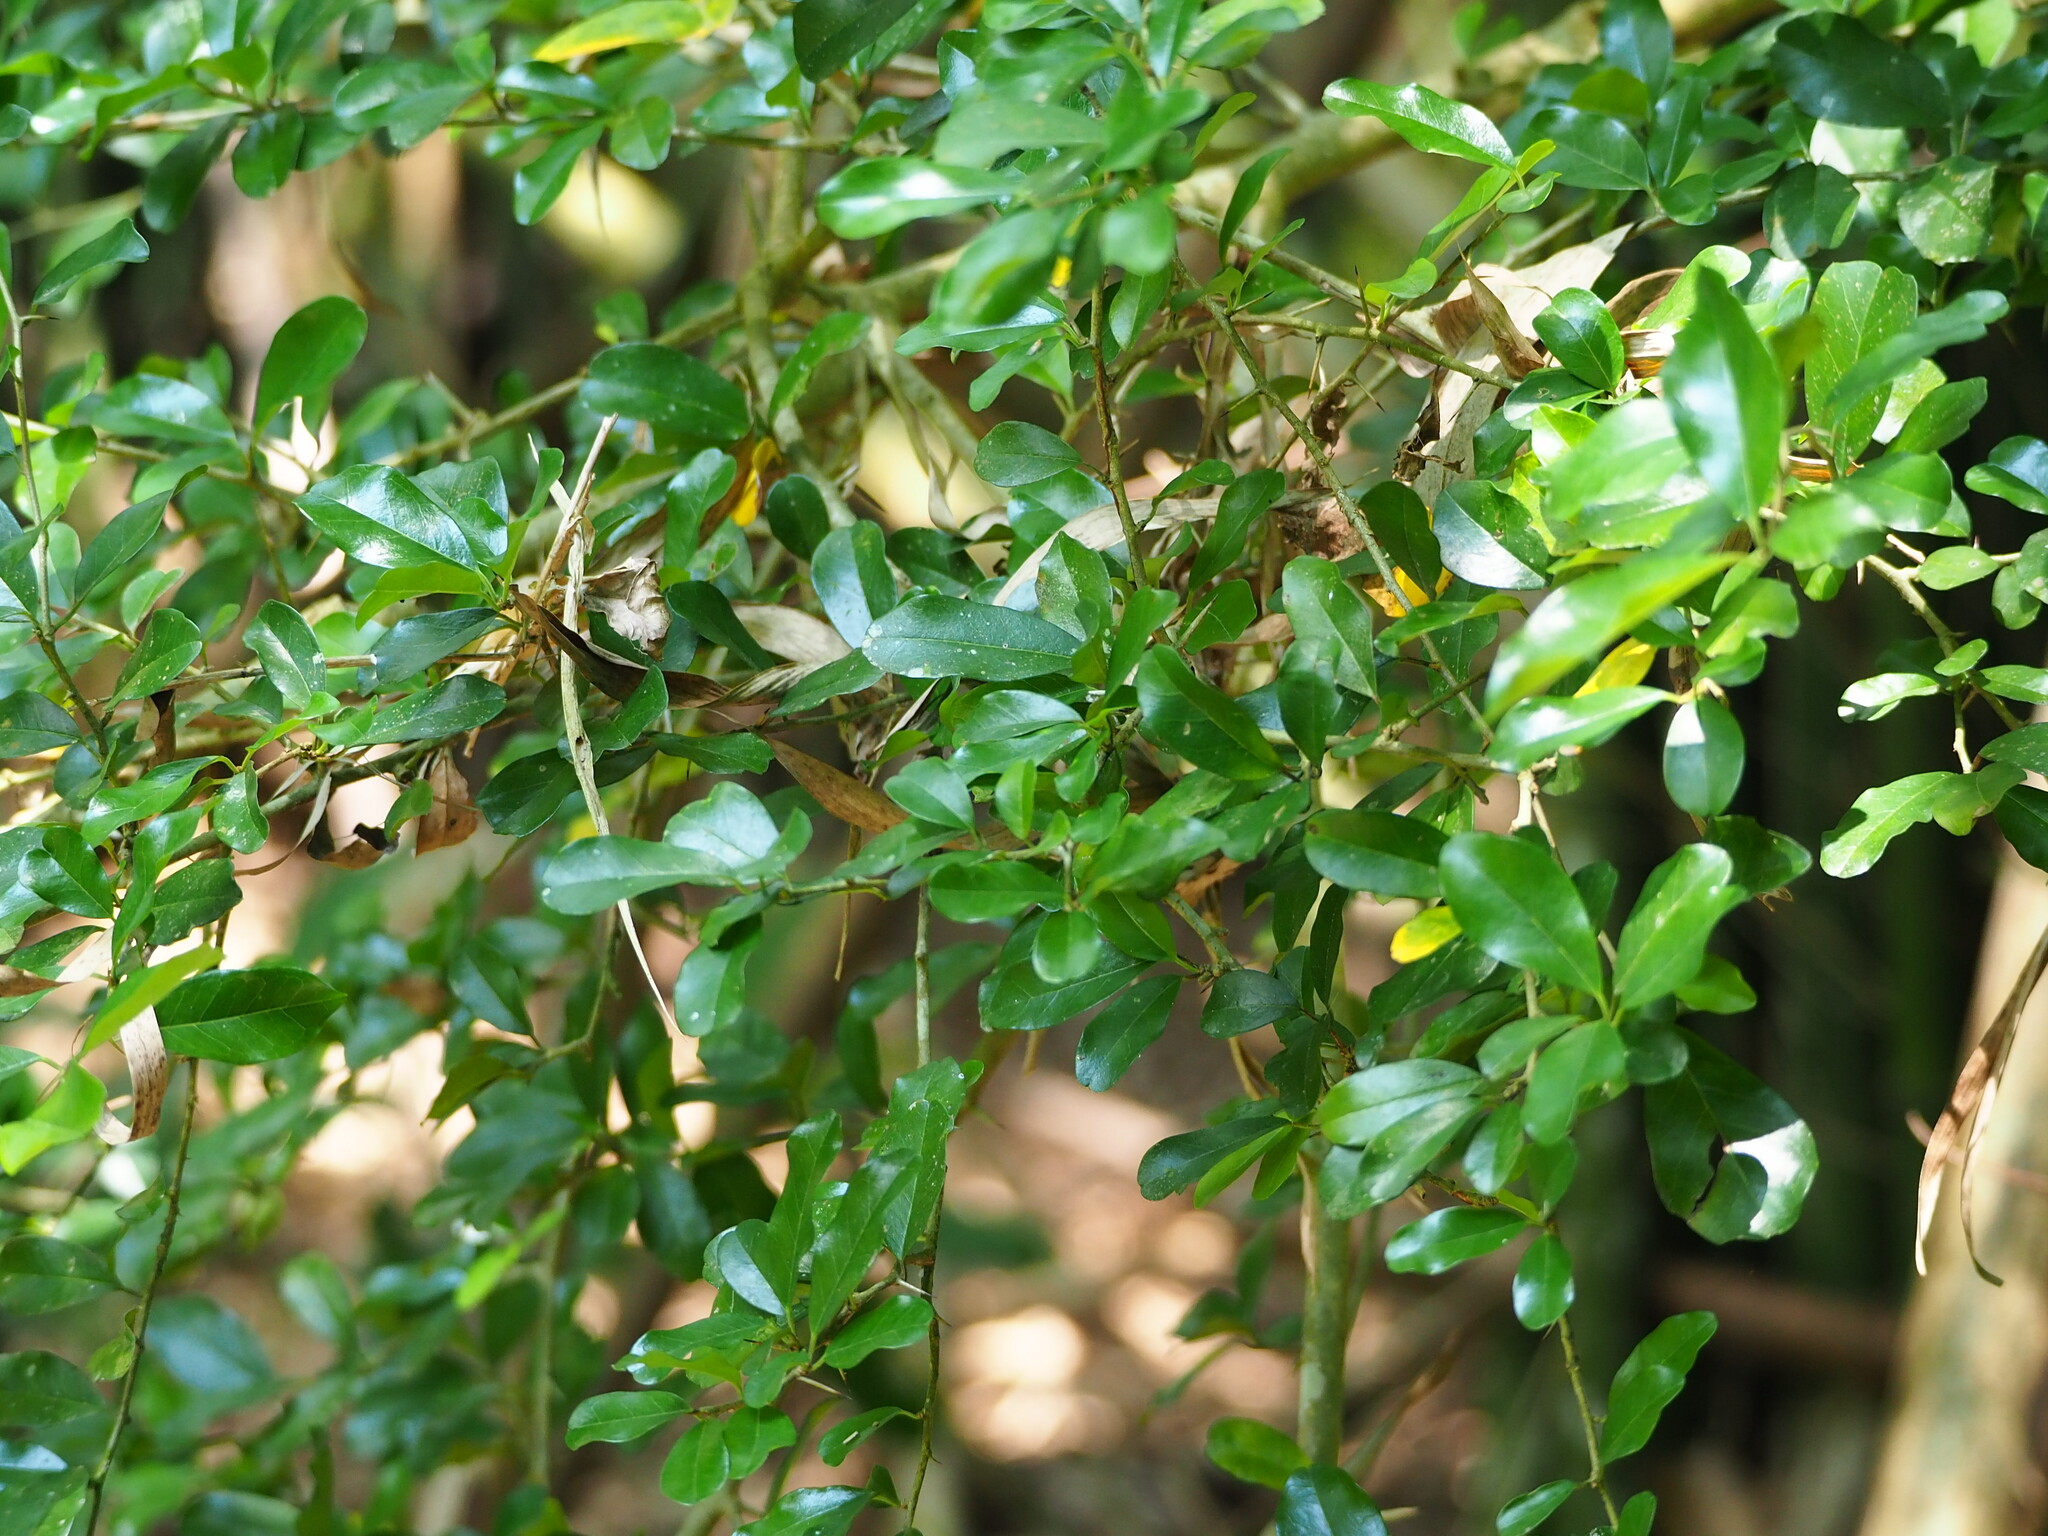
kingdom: Plantae
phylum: Tracheophyta
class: Magnoliopsida
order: Rosales
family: Moraceae
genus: Maclura
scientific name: Maclura cochinchinensis
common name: Cockspurthorn
